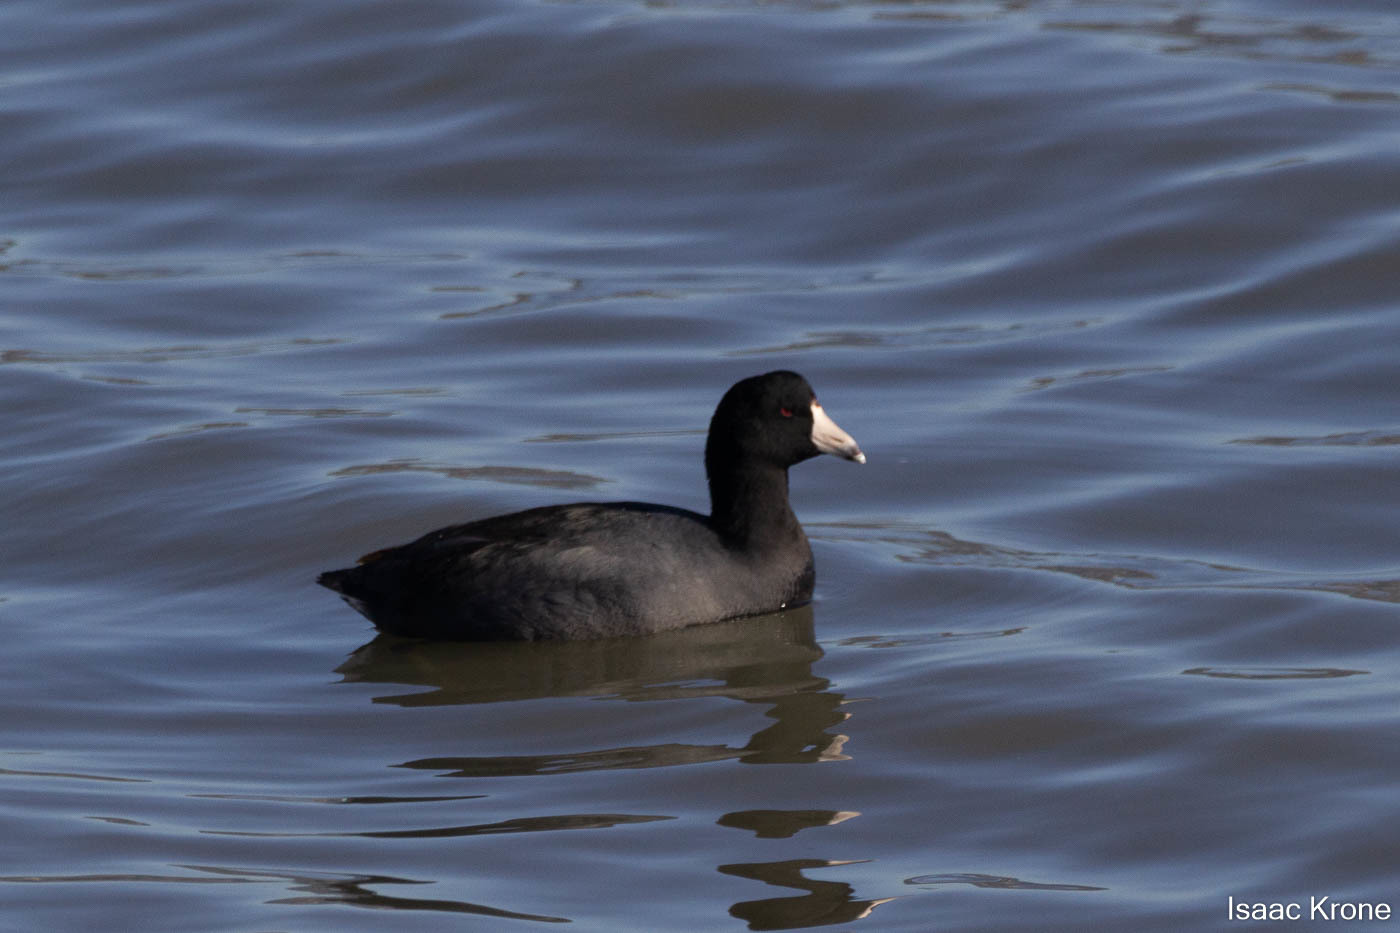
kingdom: Animalia
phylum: Chordata
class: Aves
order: Gruiformes
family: Rallidae
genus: Fulica
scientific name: Fulica americana
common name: American coot
